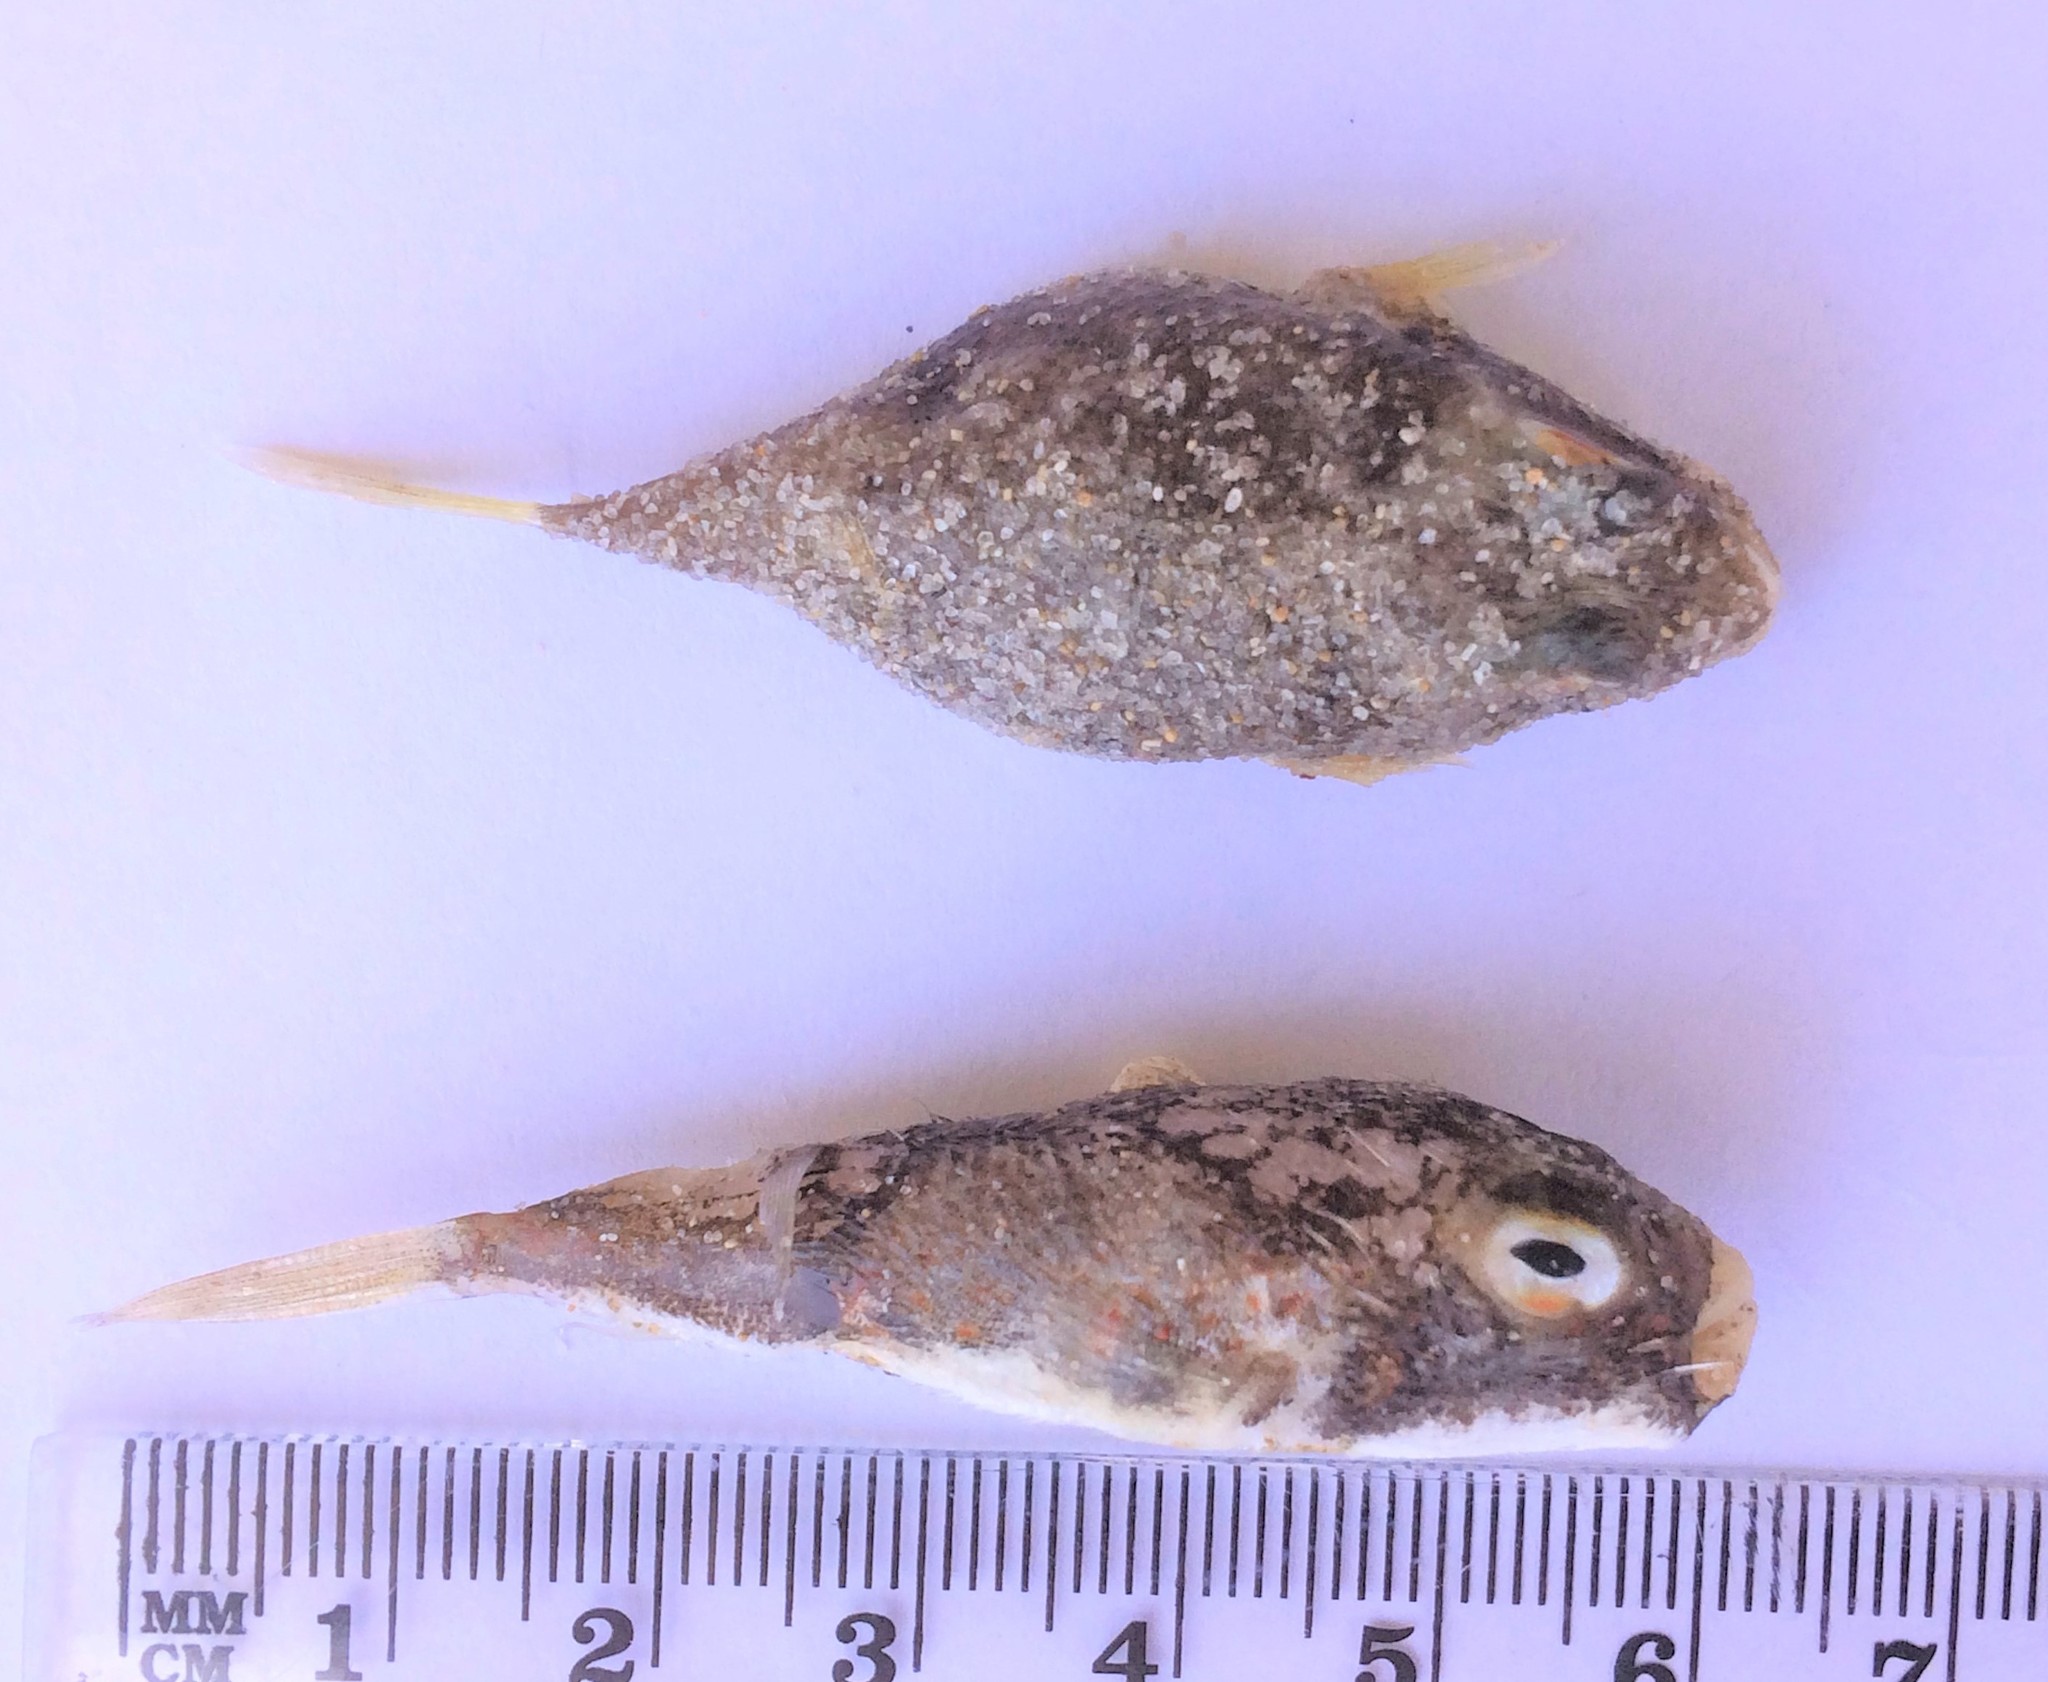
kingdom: Animalia
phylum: Chordata
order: Tetraodontiformes
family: Tetraodontidae
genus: Polyspina
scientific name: Polyspina piosae
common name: Orange-barred pufferfish
